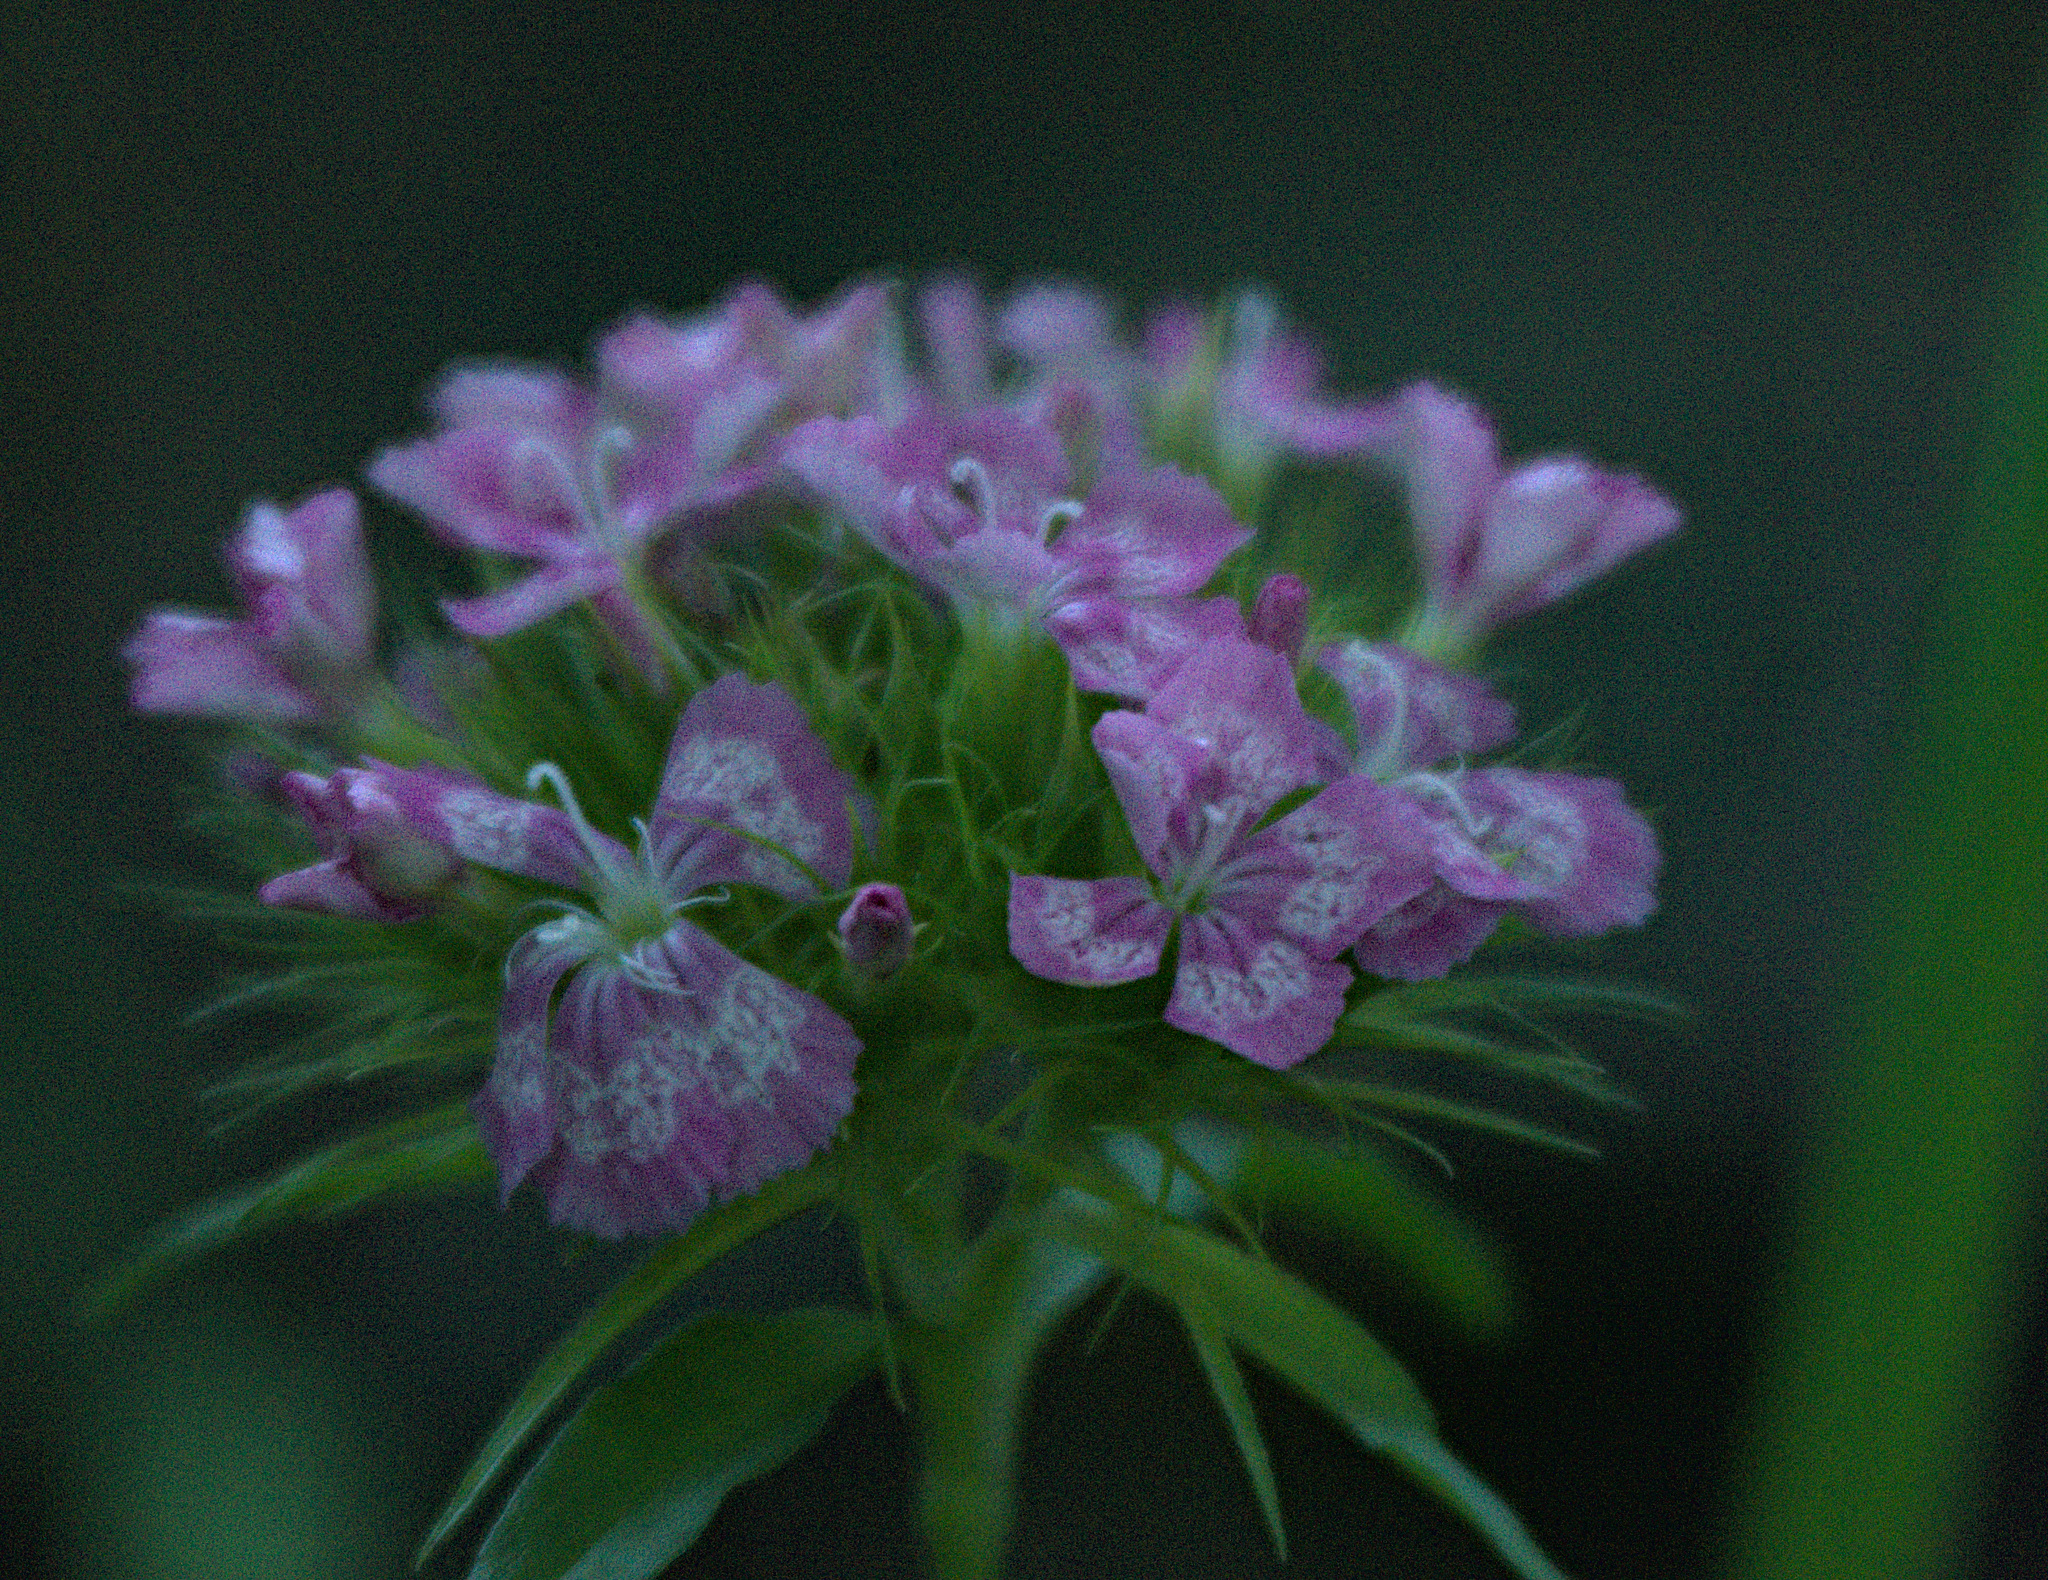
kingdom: Plantae
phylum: Tracheophyta
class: Magnoliopsida
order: Caryophyllales
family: Caryophyllaceae
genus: Dianthus
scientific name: Dianthus barbatus
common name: Sweet-william
